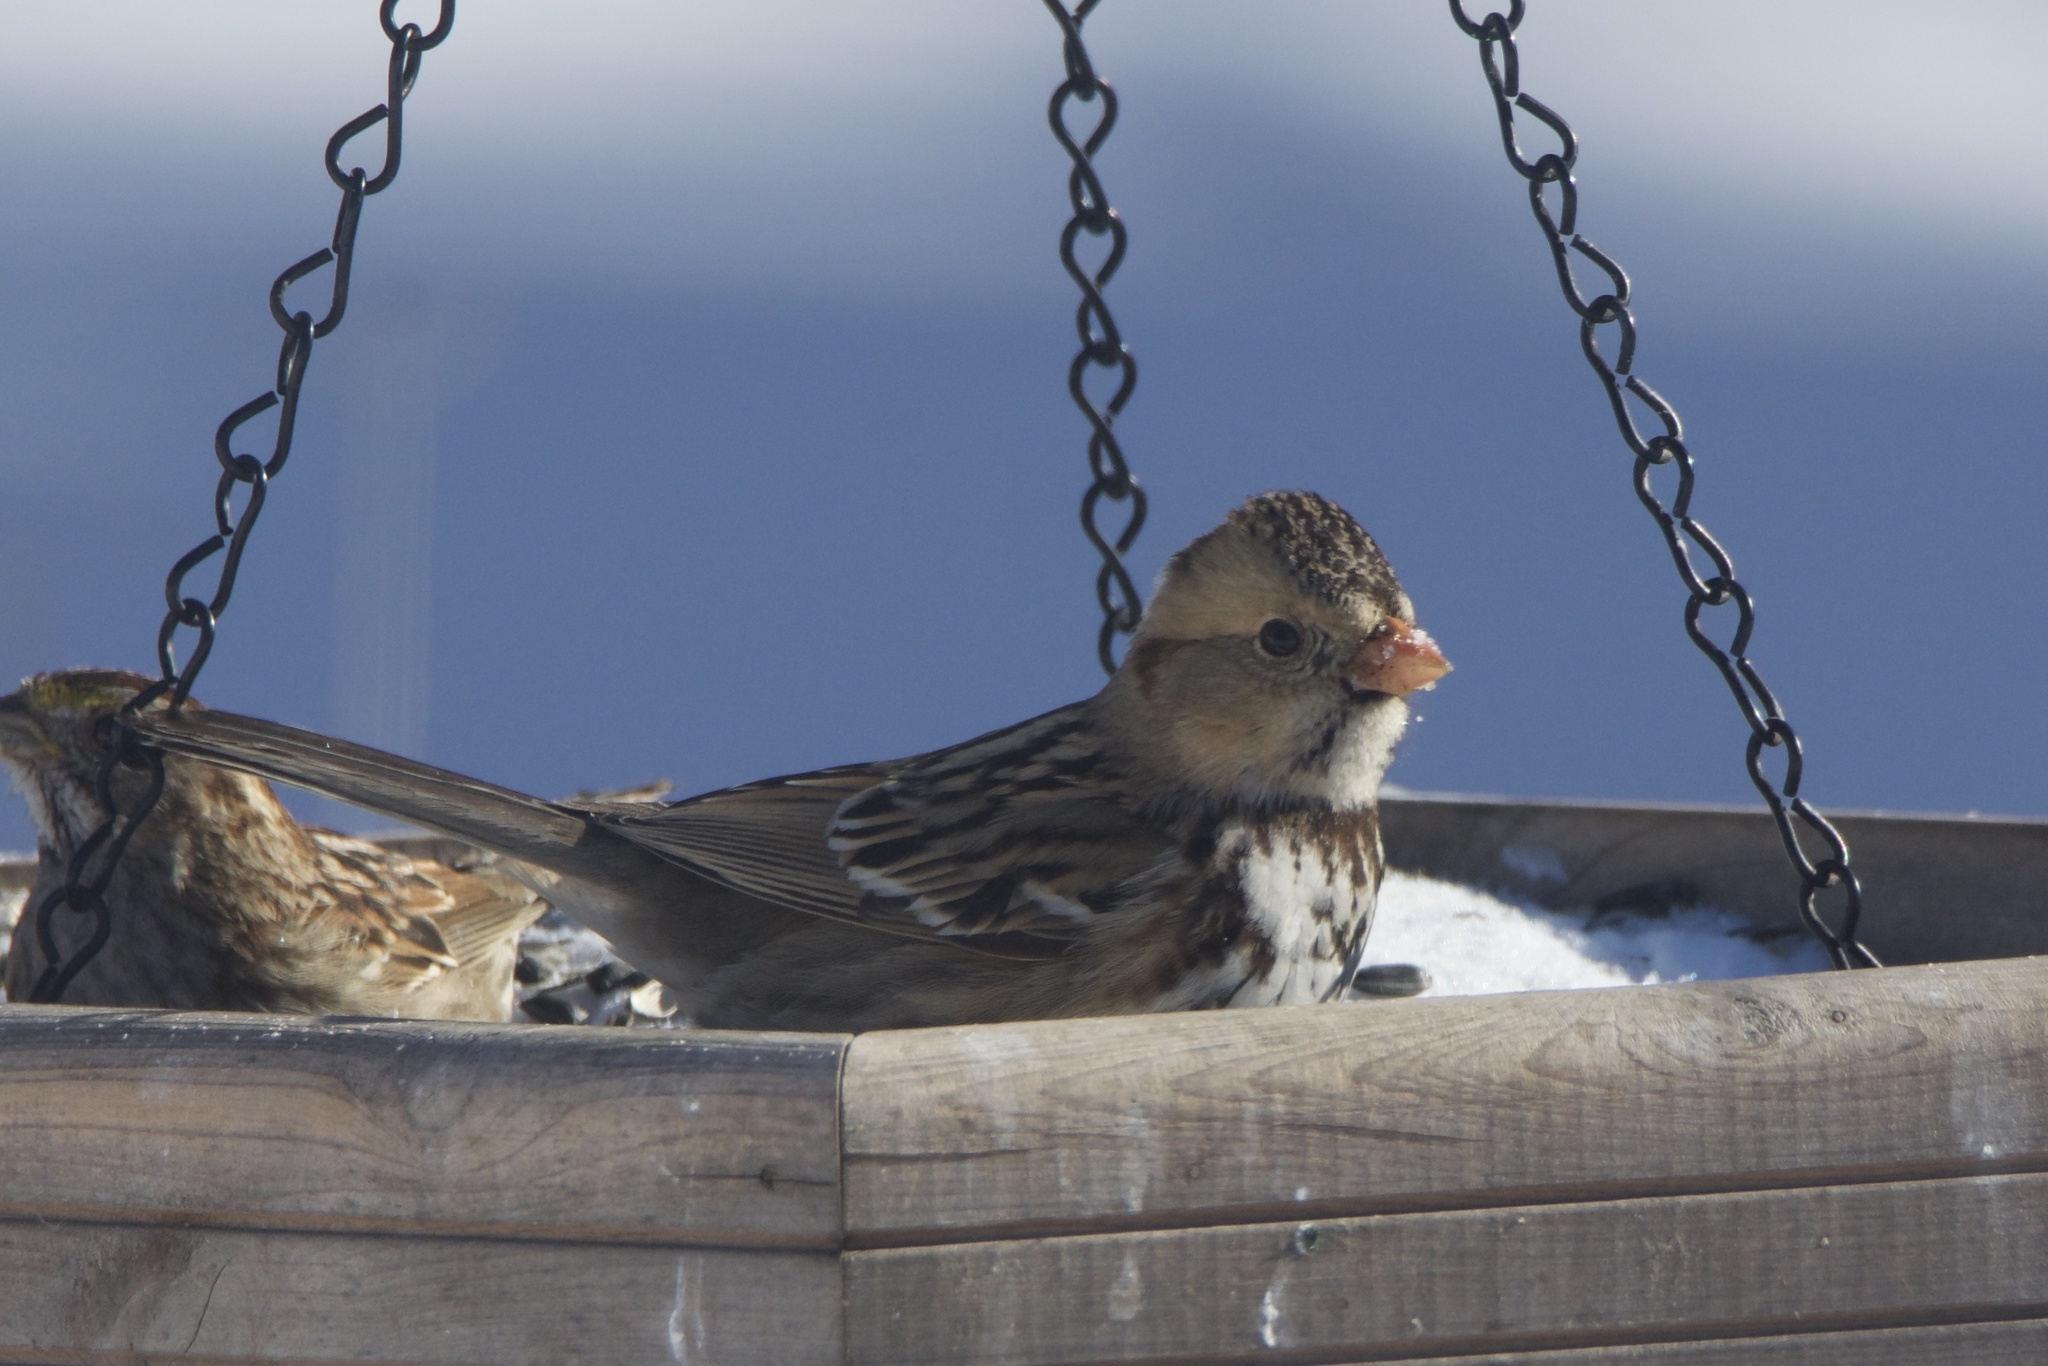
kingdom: Animalia
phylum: Chordata
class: Aves
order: Passeriformes
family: Passerellidae
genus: Zonotrichia
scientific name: Zonotrichia querula
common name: Harris's sparrow
